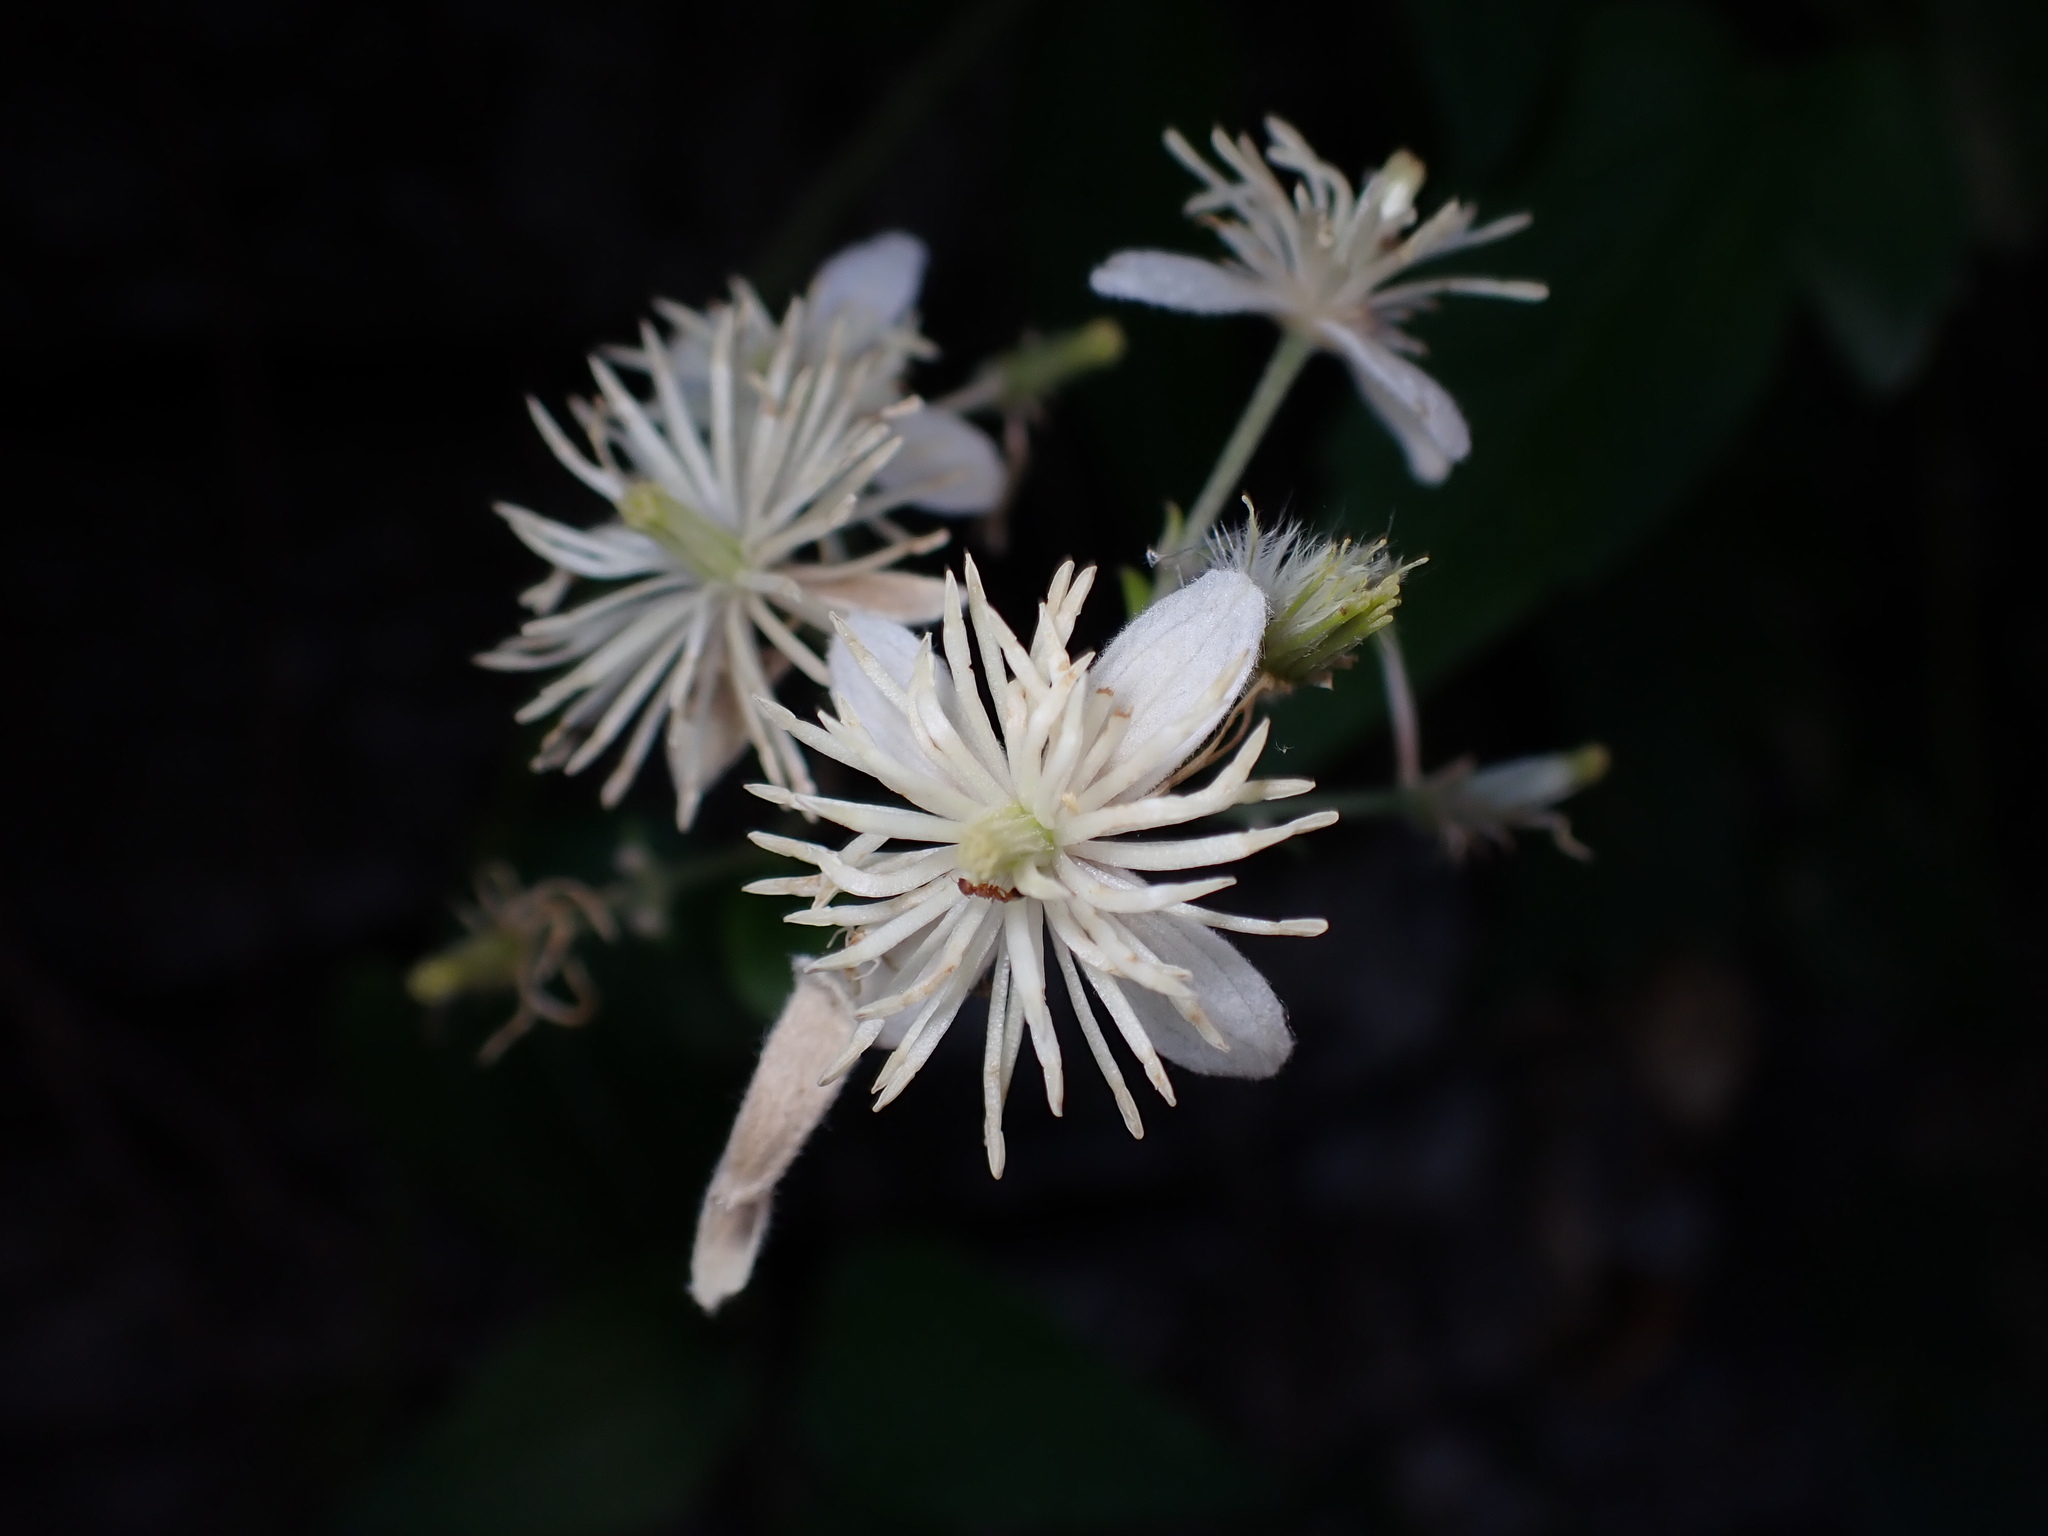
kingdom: Plantae
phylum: Tracheophyta
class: Magnoliopsida
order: Ranunculales
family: Ranunculaceae
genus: Clematis
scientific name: Clematis vitalba
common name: Evergreen clematis
